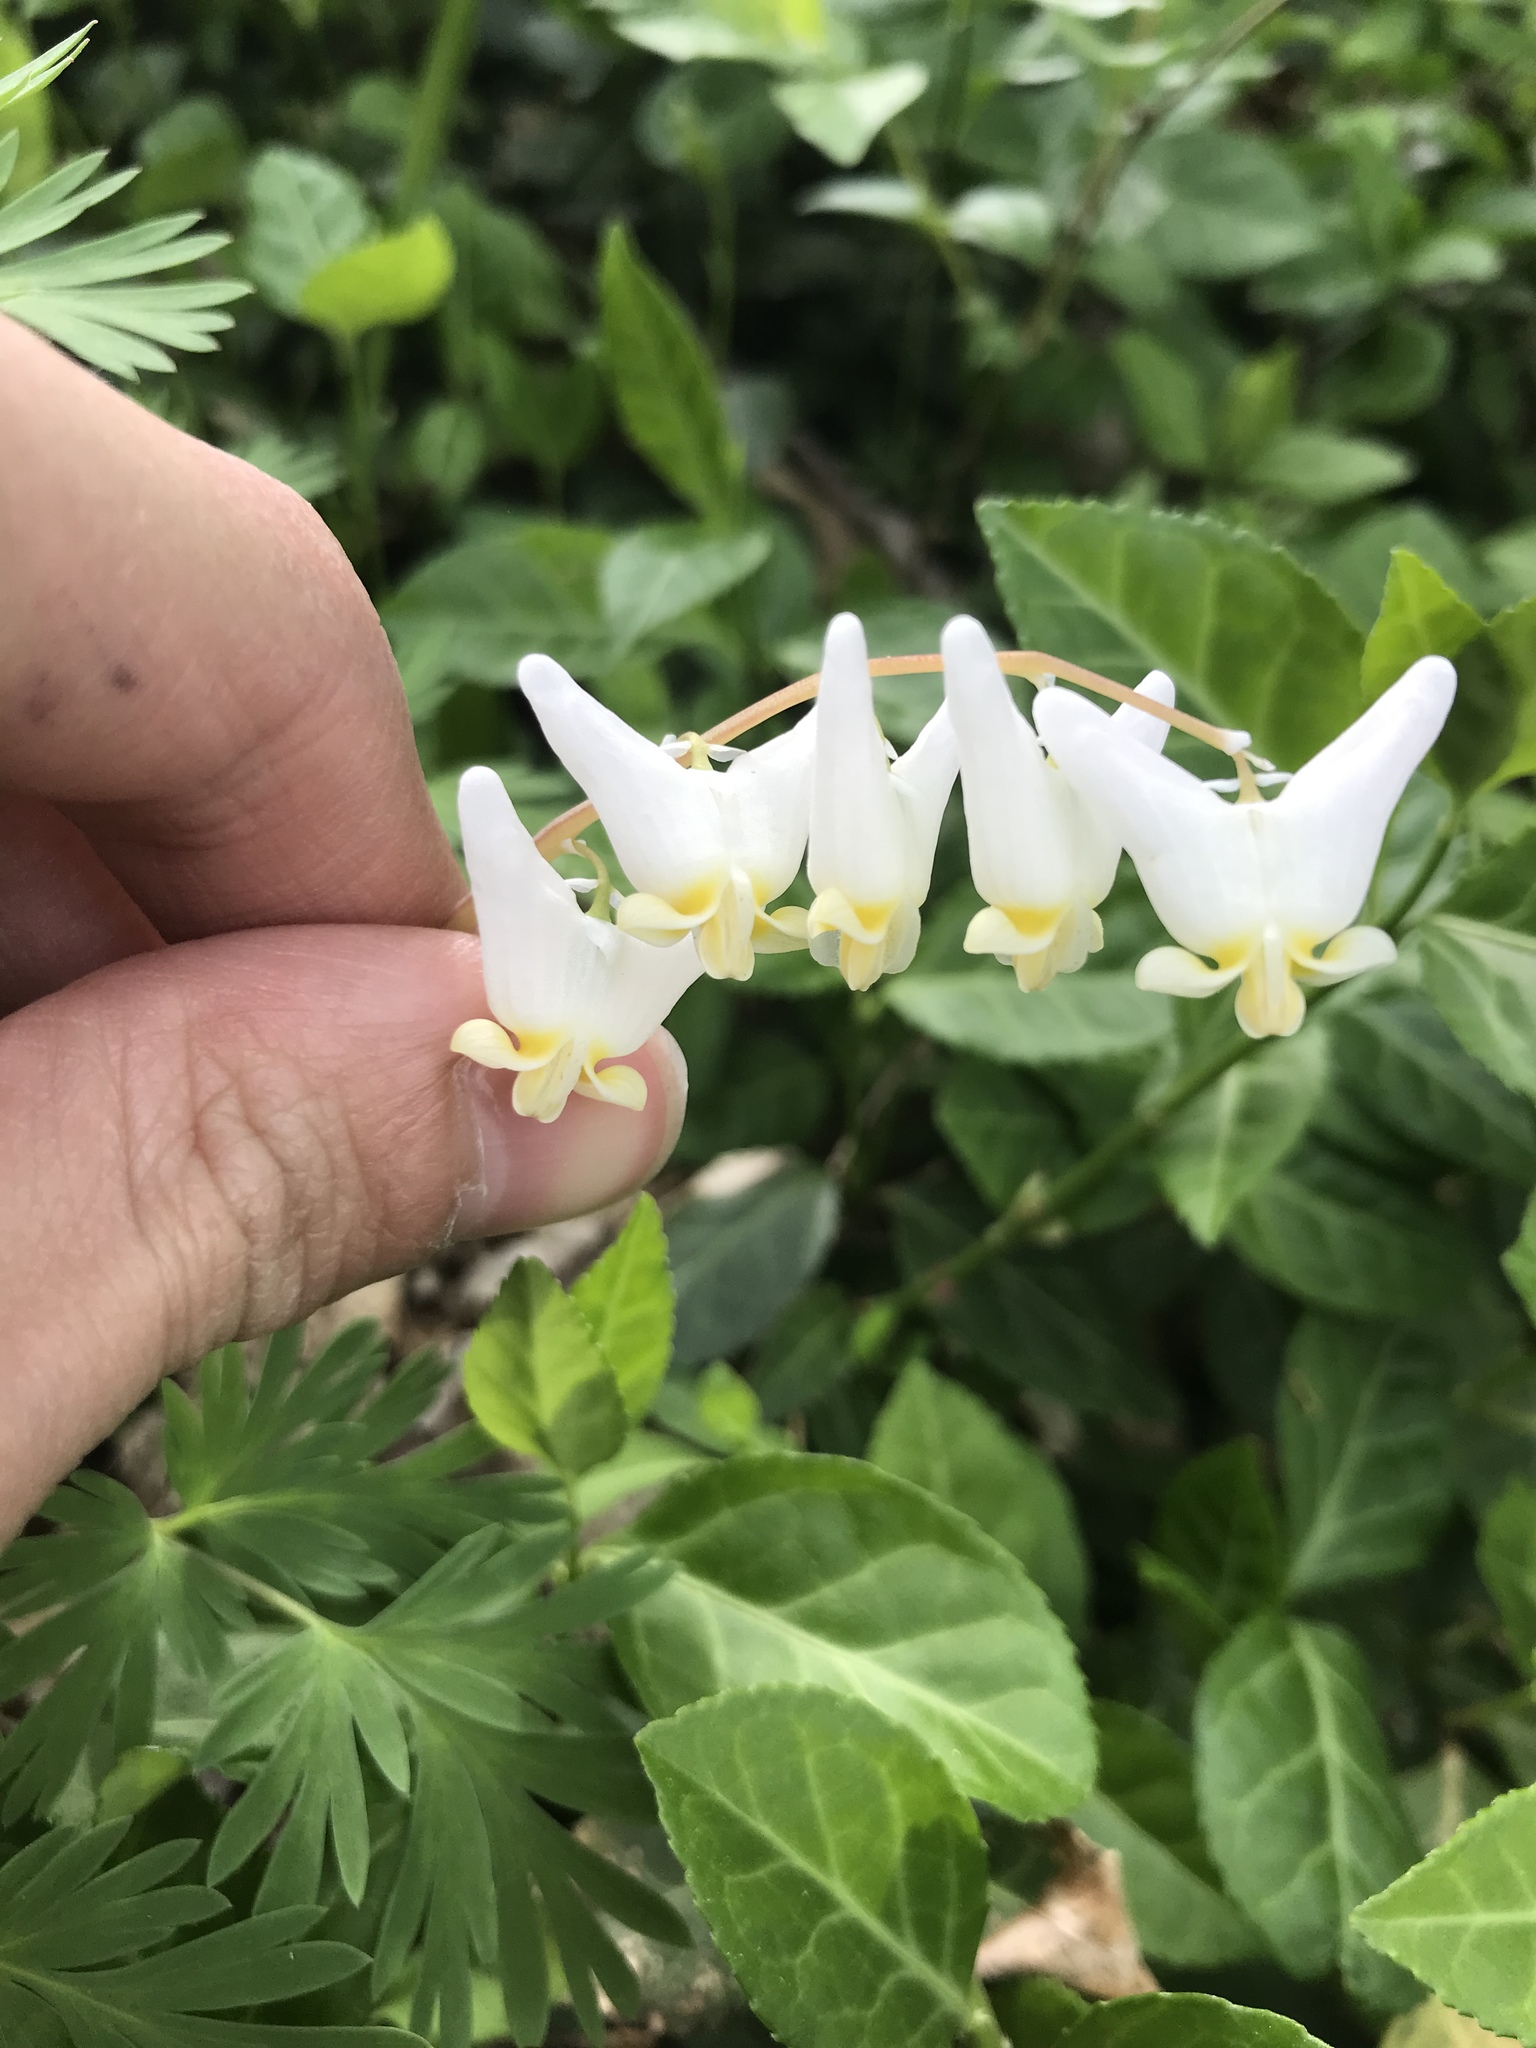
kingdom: Plantae
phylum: Tracheophyta
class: Magnoliopsida
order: Ranunculales
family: Papaveraceae
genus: Dicentra
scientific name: Dicentra cucullaria
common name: Dutchman's breeches
